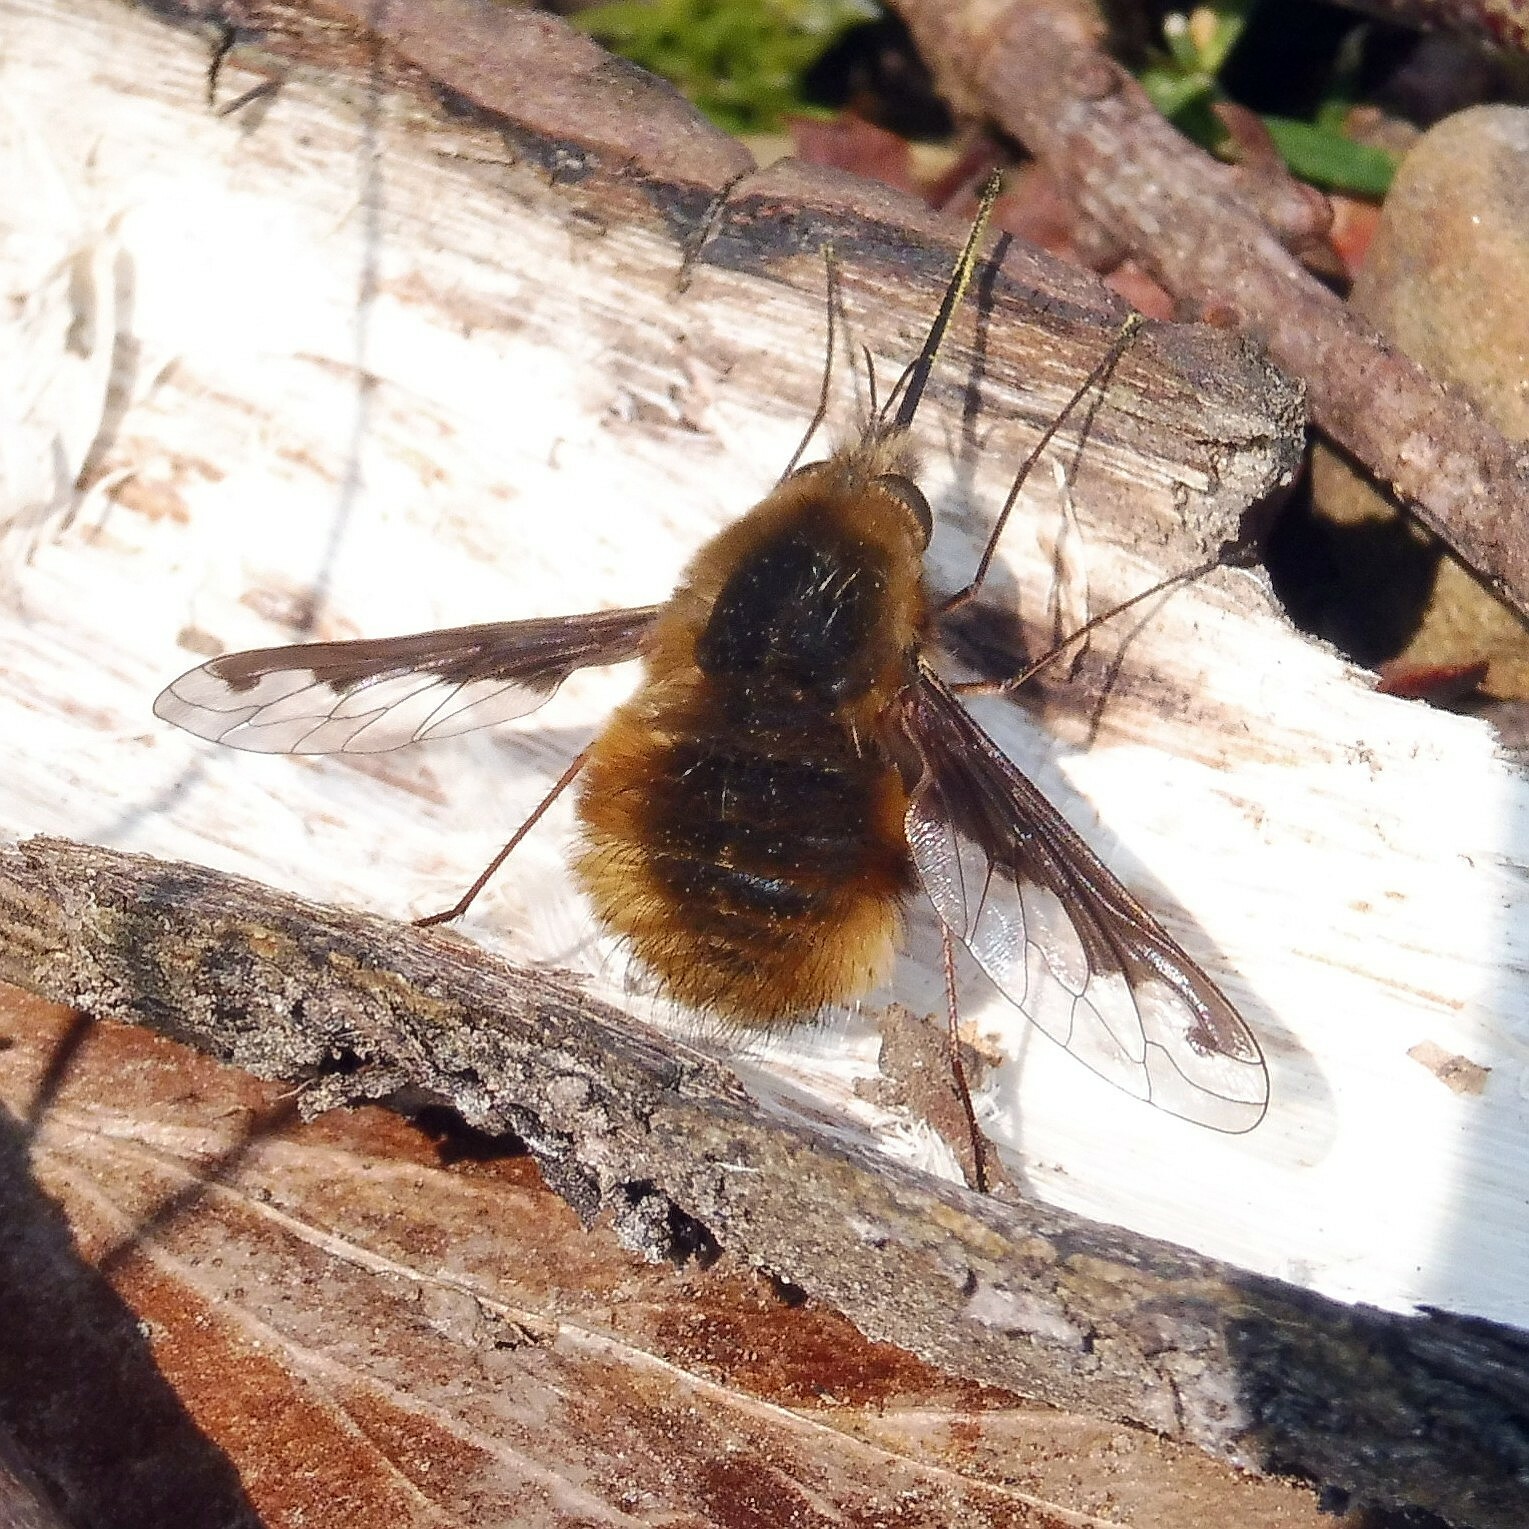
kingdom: Animalia
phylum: Arthropoda
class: Insecta
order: Diptera
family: Bombyliidae
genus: Bombylius
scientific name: Bombylius major
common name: Bee fly
